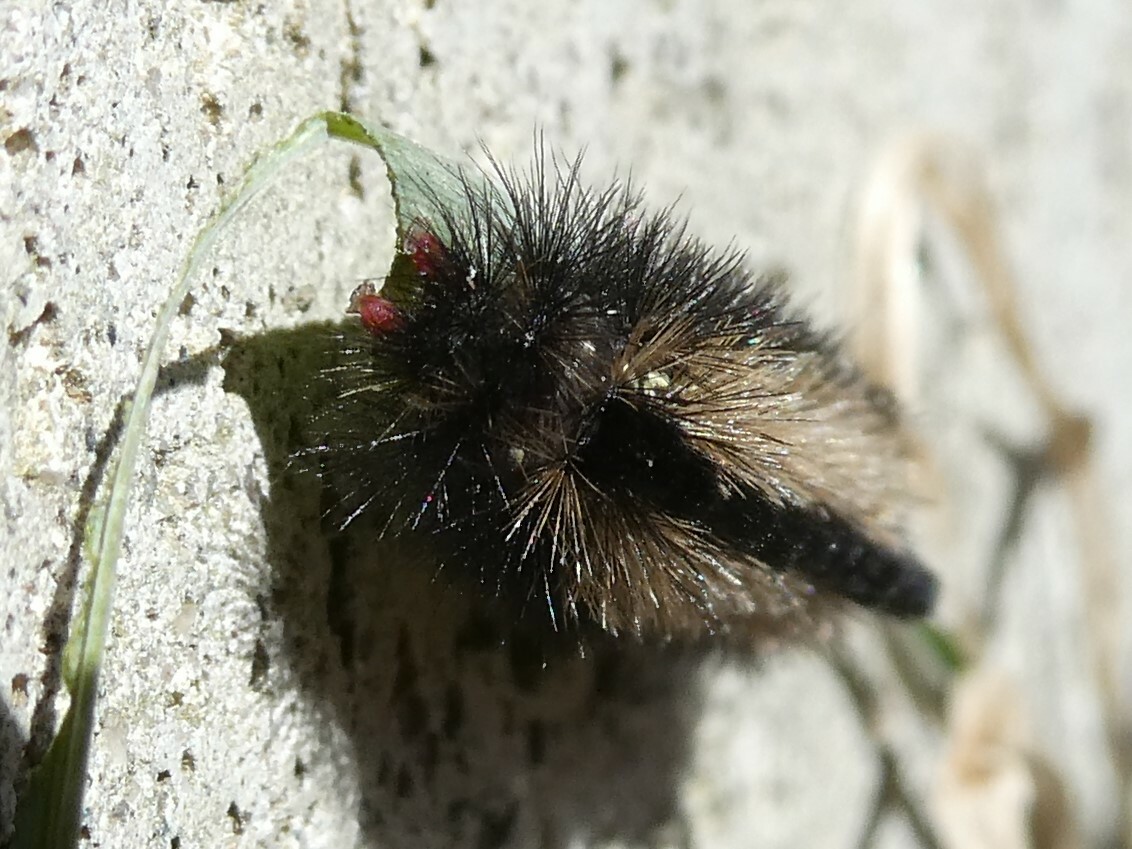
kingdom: Animalia
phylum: Arthropoda
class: Insecta
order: Lepidoptera
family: Erebidae
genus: Ctenucha
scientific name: Ctenucha virginica
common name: Virginia ctenucha moth
